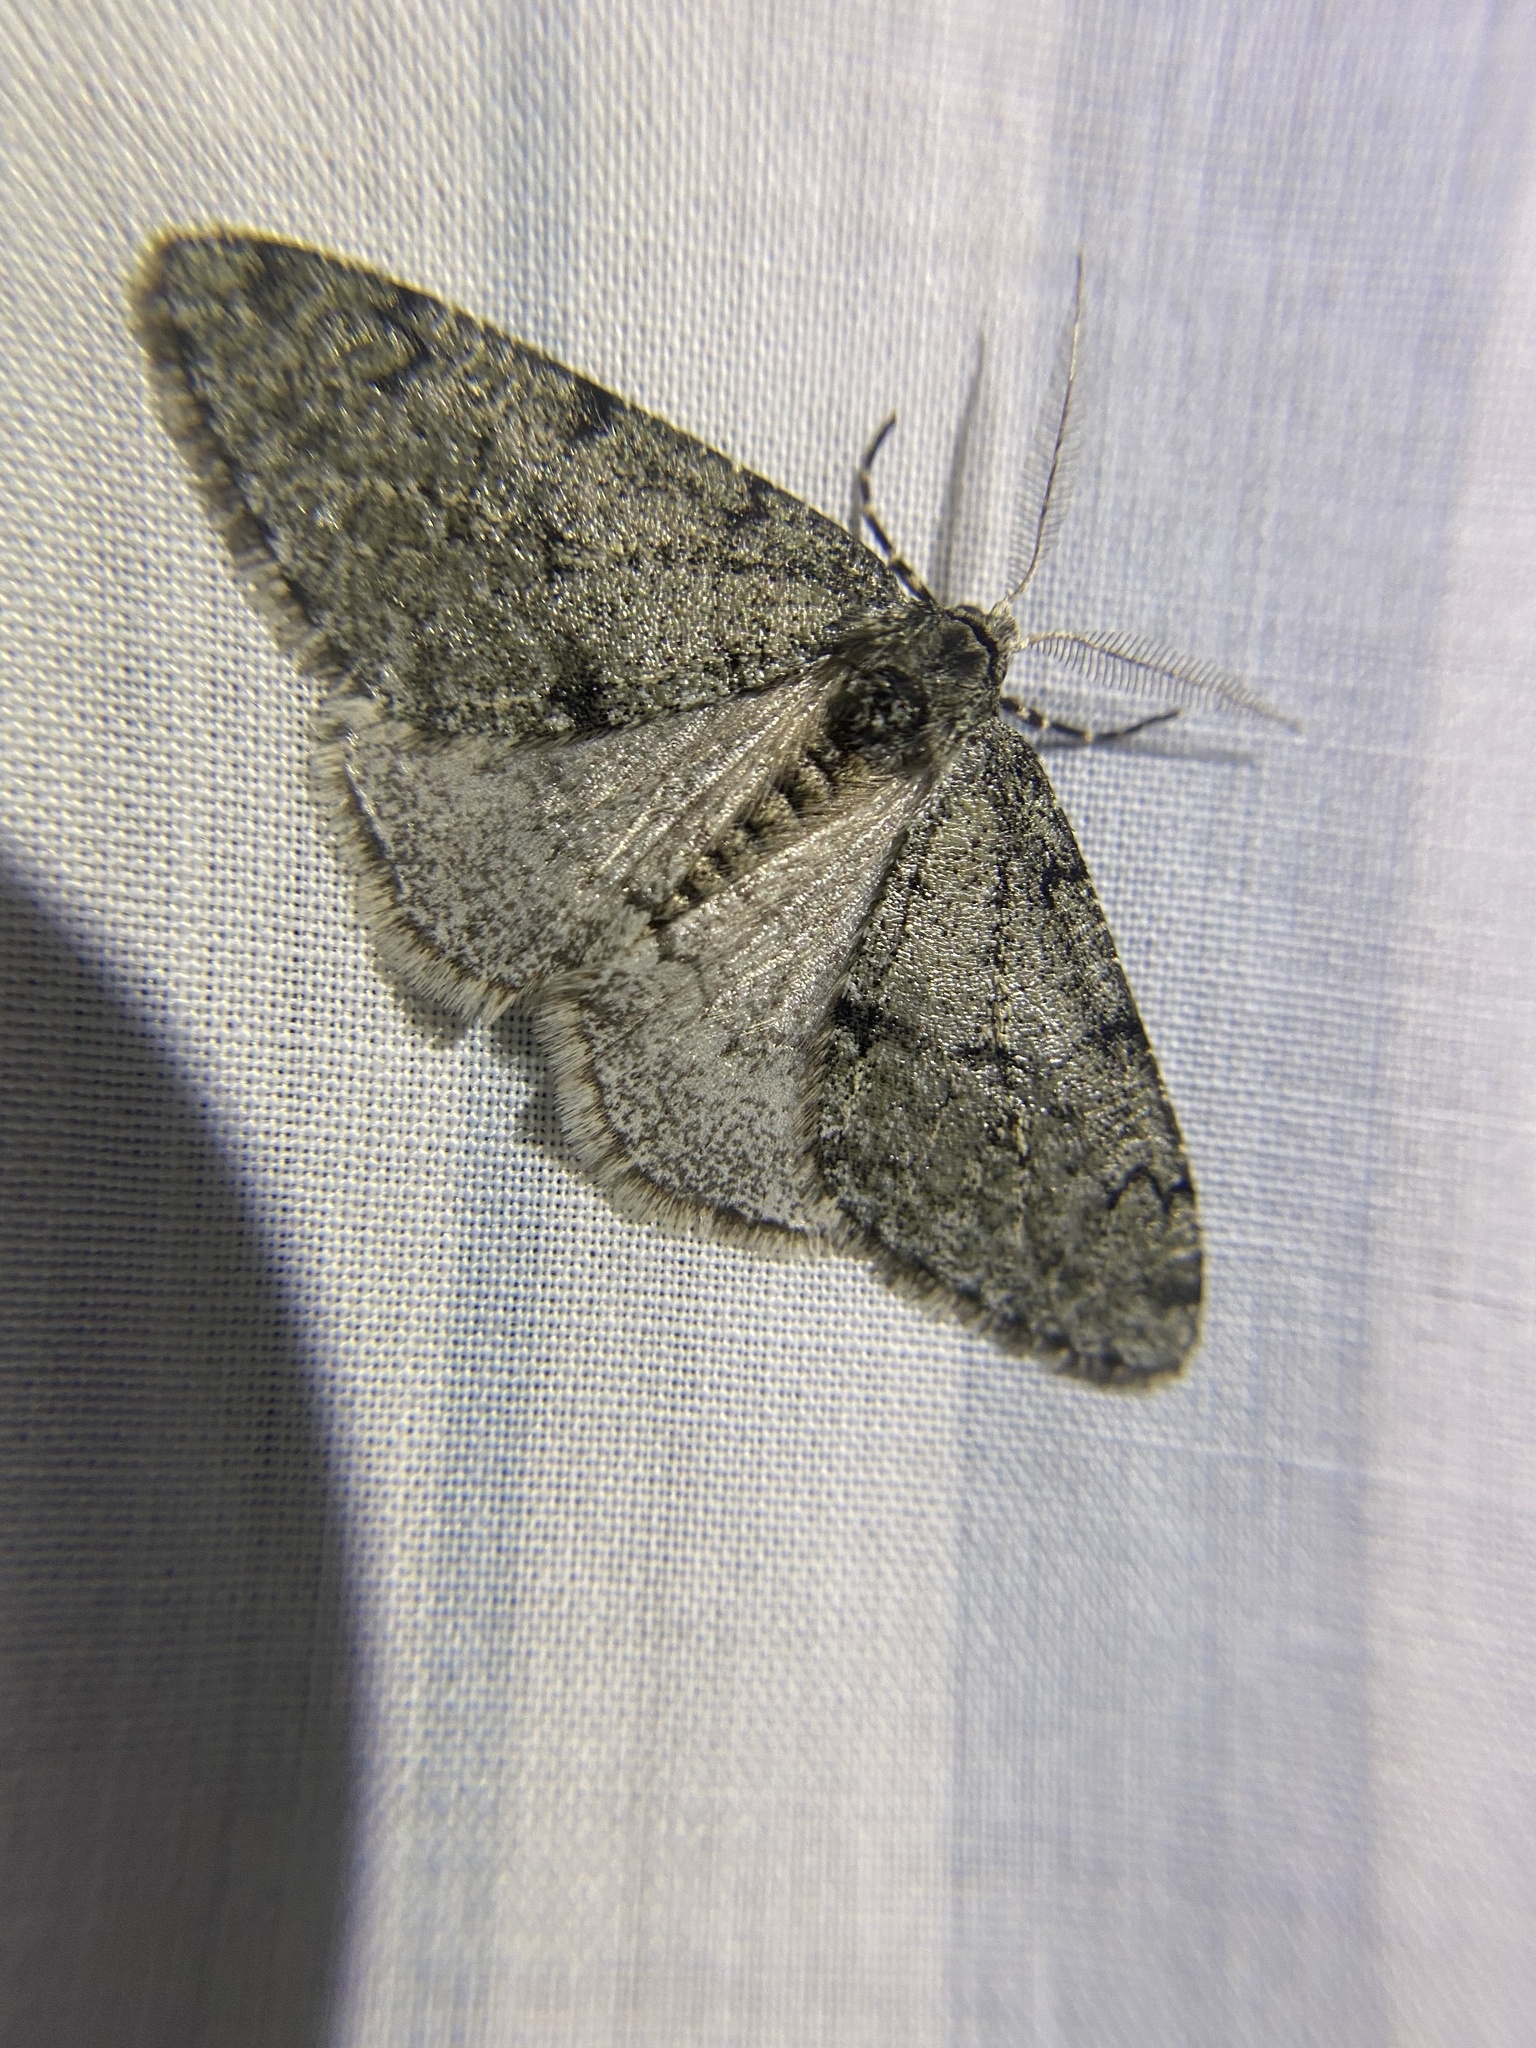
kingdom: Animalia
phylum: Arthropoda
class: Insecta
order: Lepidoptera
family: Geometridae
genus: Phigalia
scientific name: Phigalia strigataria
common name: Small phigalia
